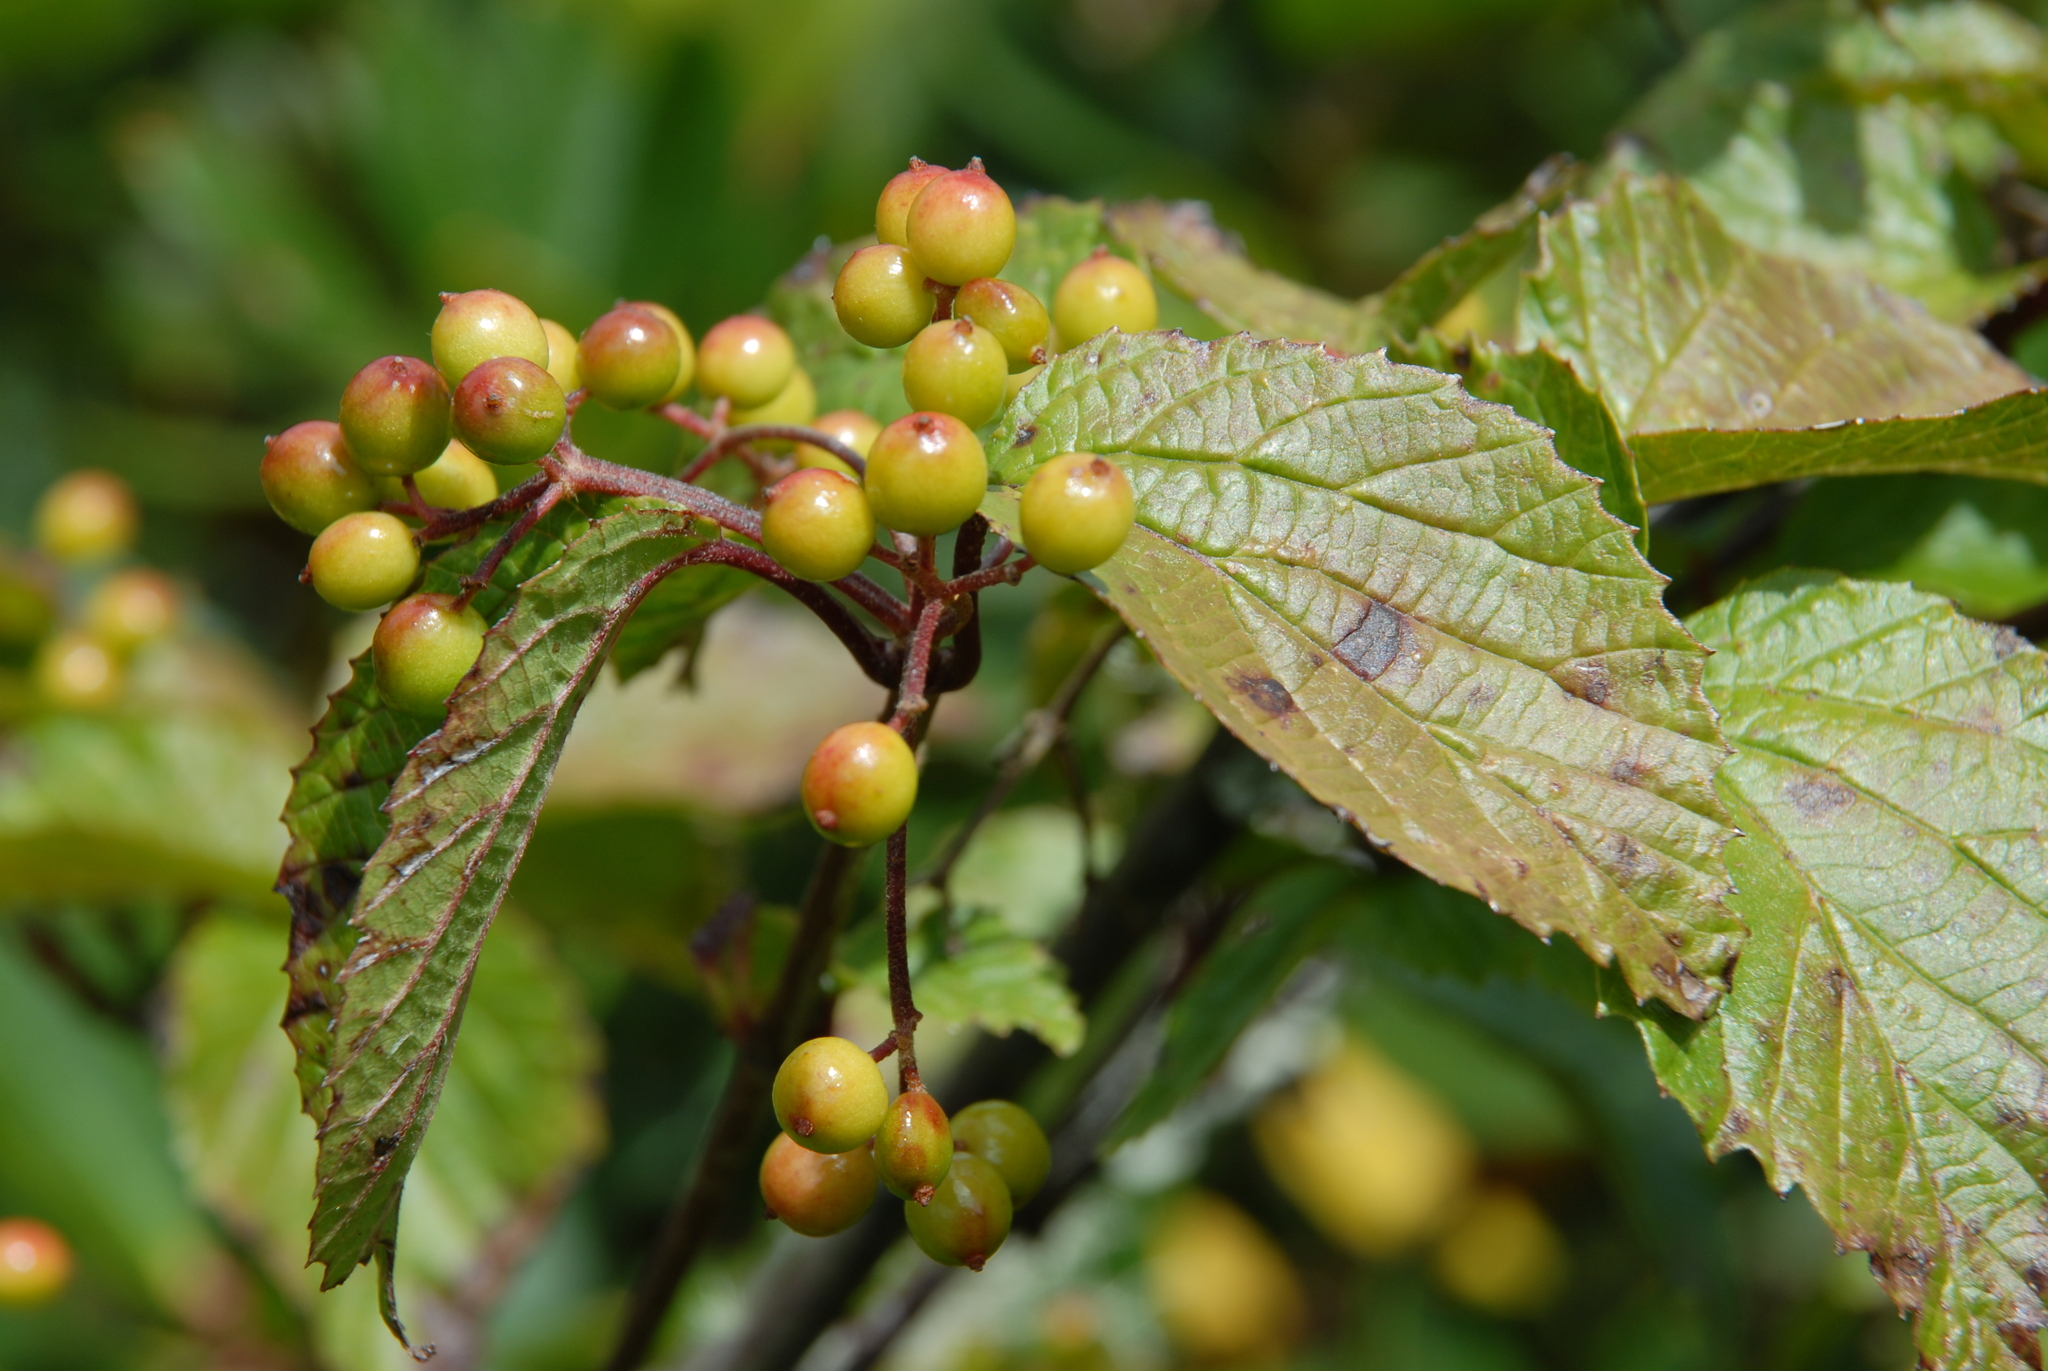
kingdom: Plantae
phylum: Tracheophyta
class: Magnoliopsida
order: Dipsacales
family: Viburnaceae
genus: Viburnum
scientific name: Viburnum betulifolium
